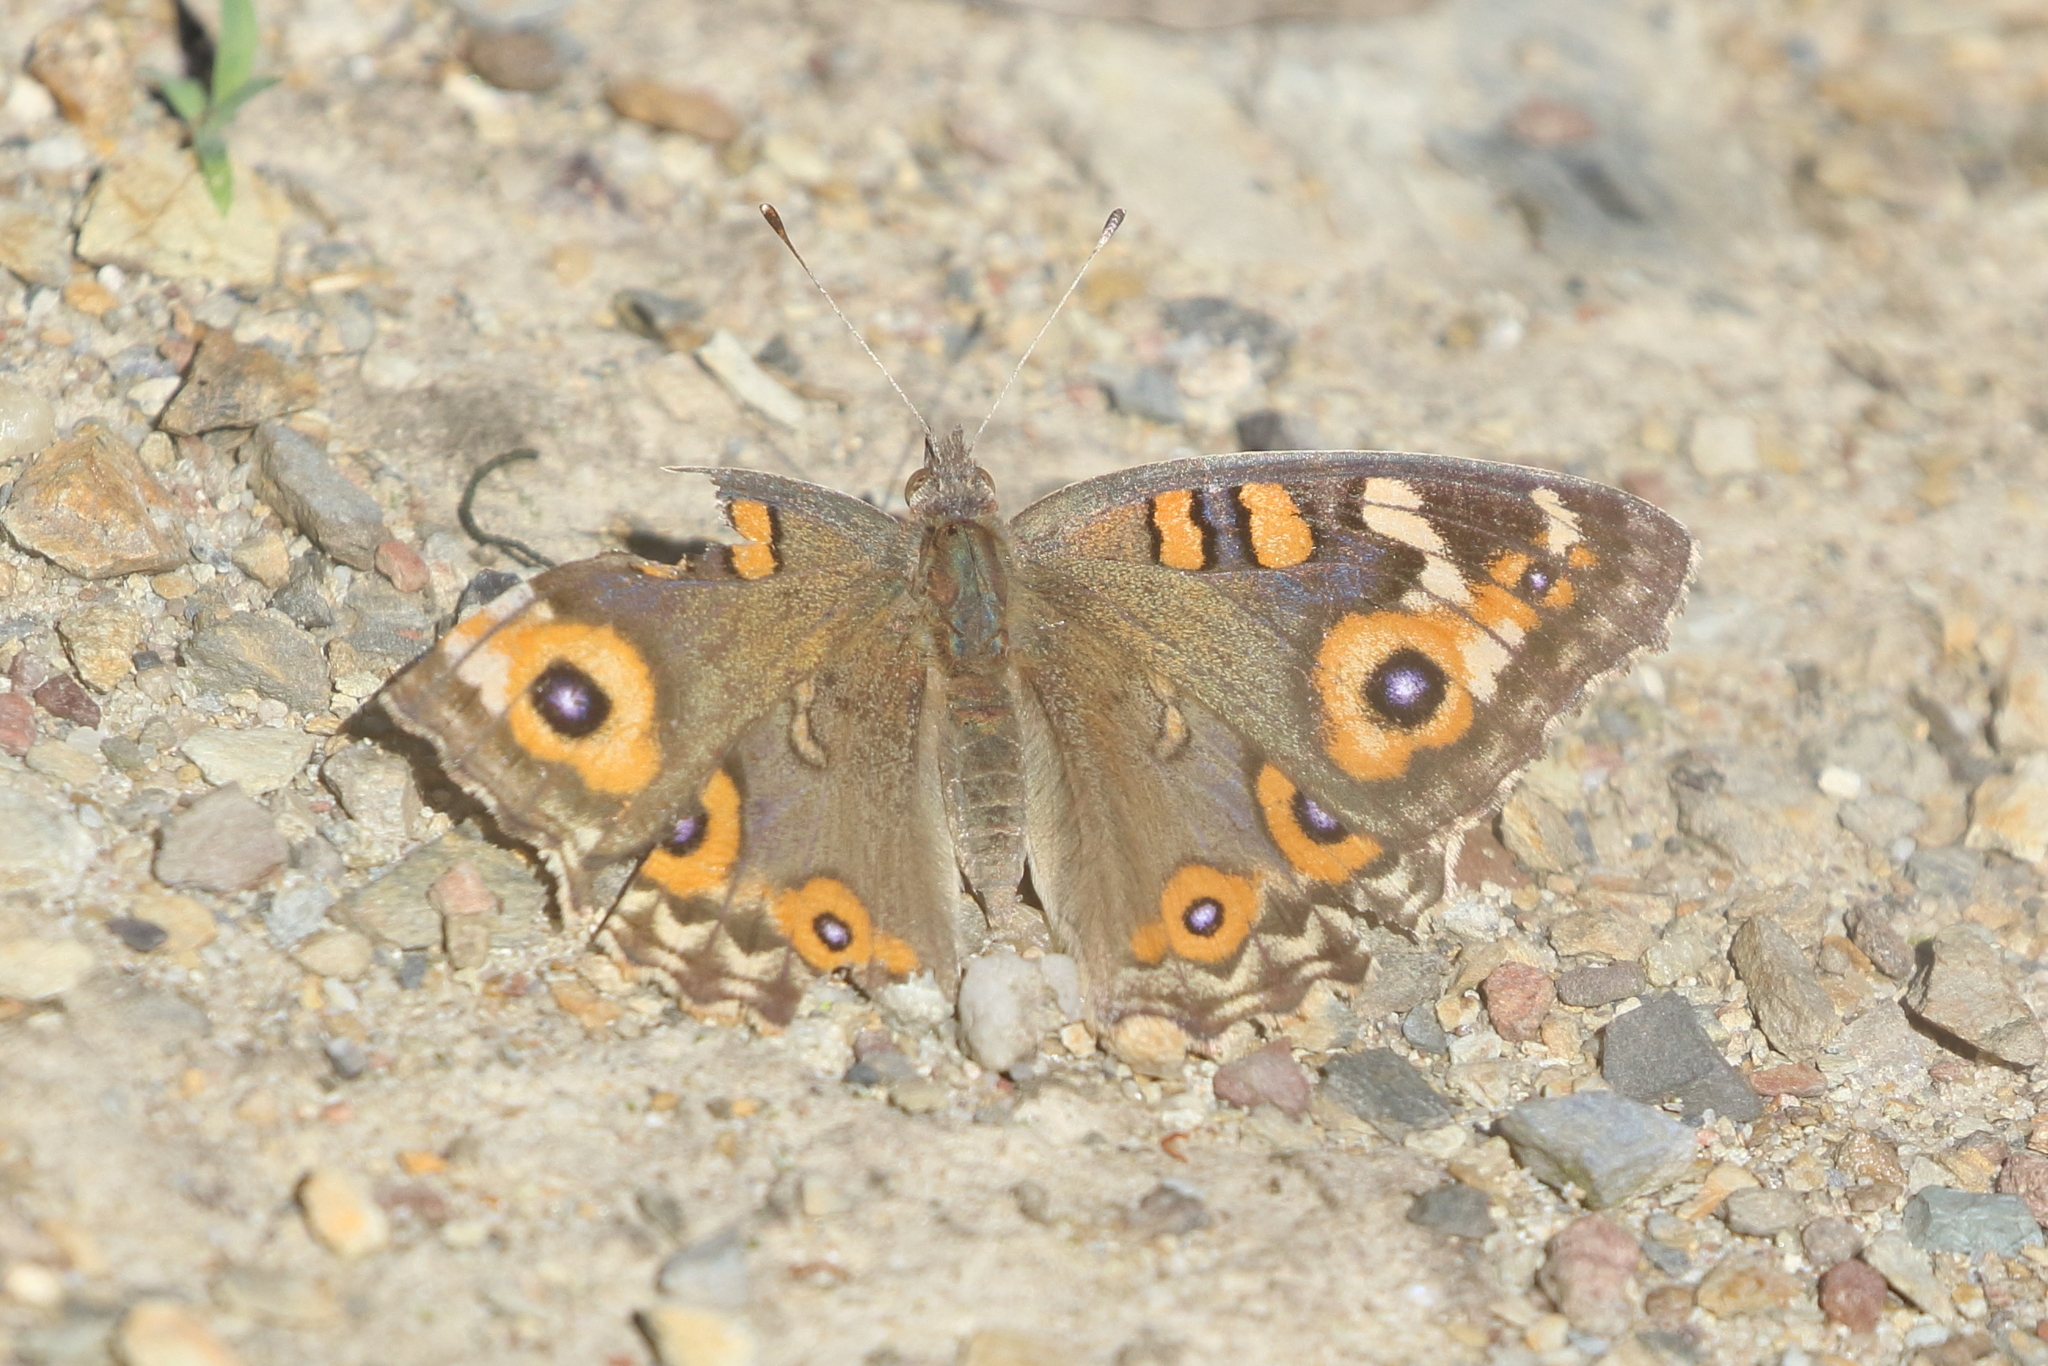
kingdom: Animalia
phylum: Arthropoda
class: Insecta
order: Lepidoptera
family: Nymphalidae
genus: Junonia
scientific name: Junonia villida
